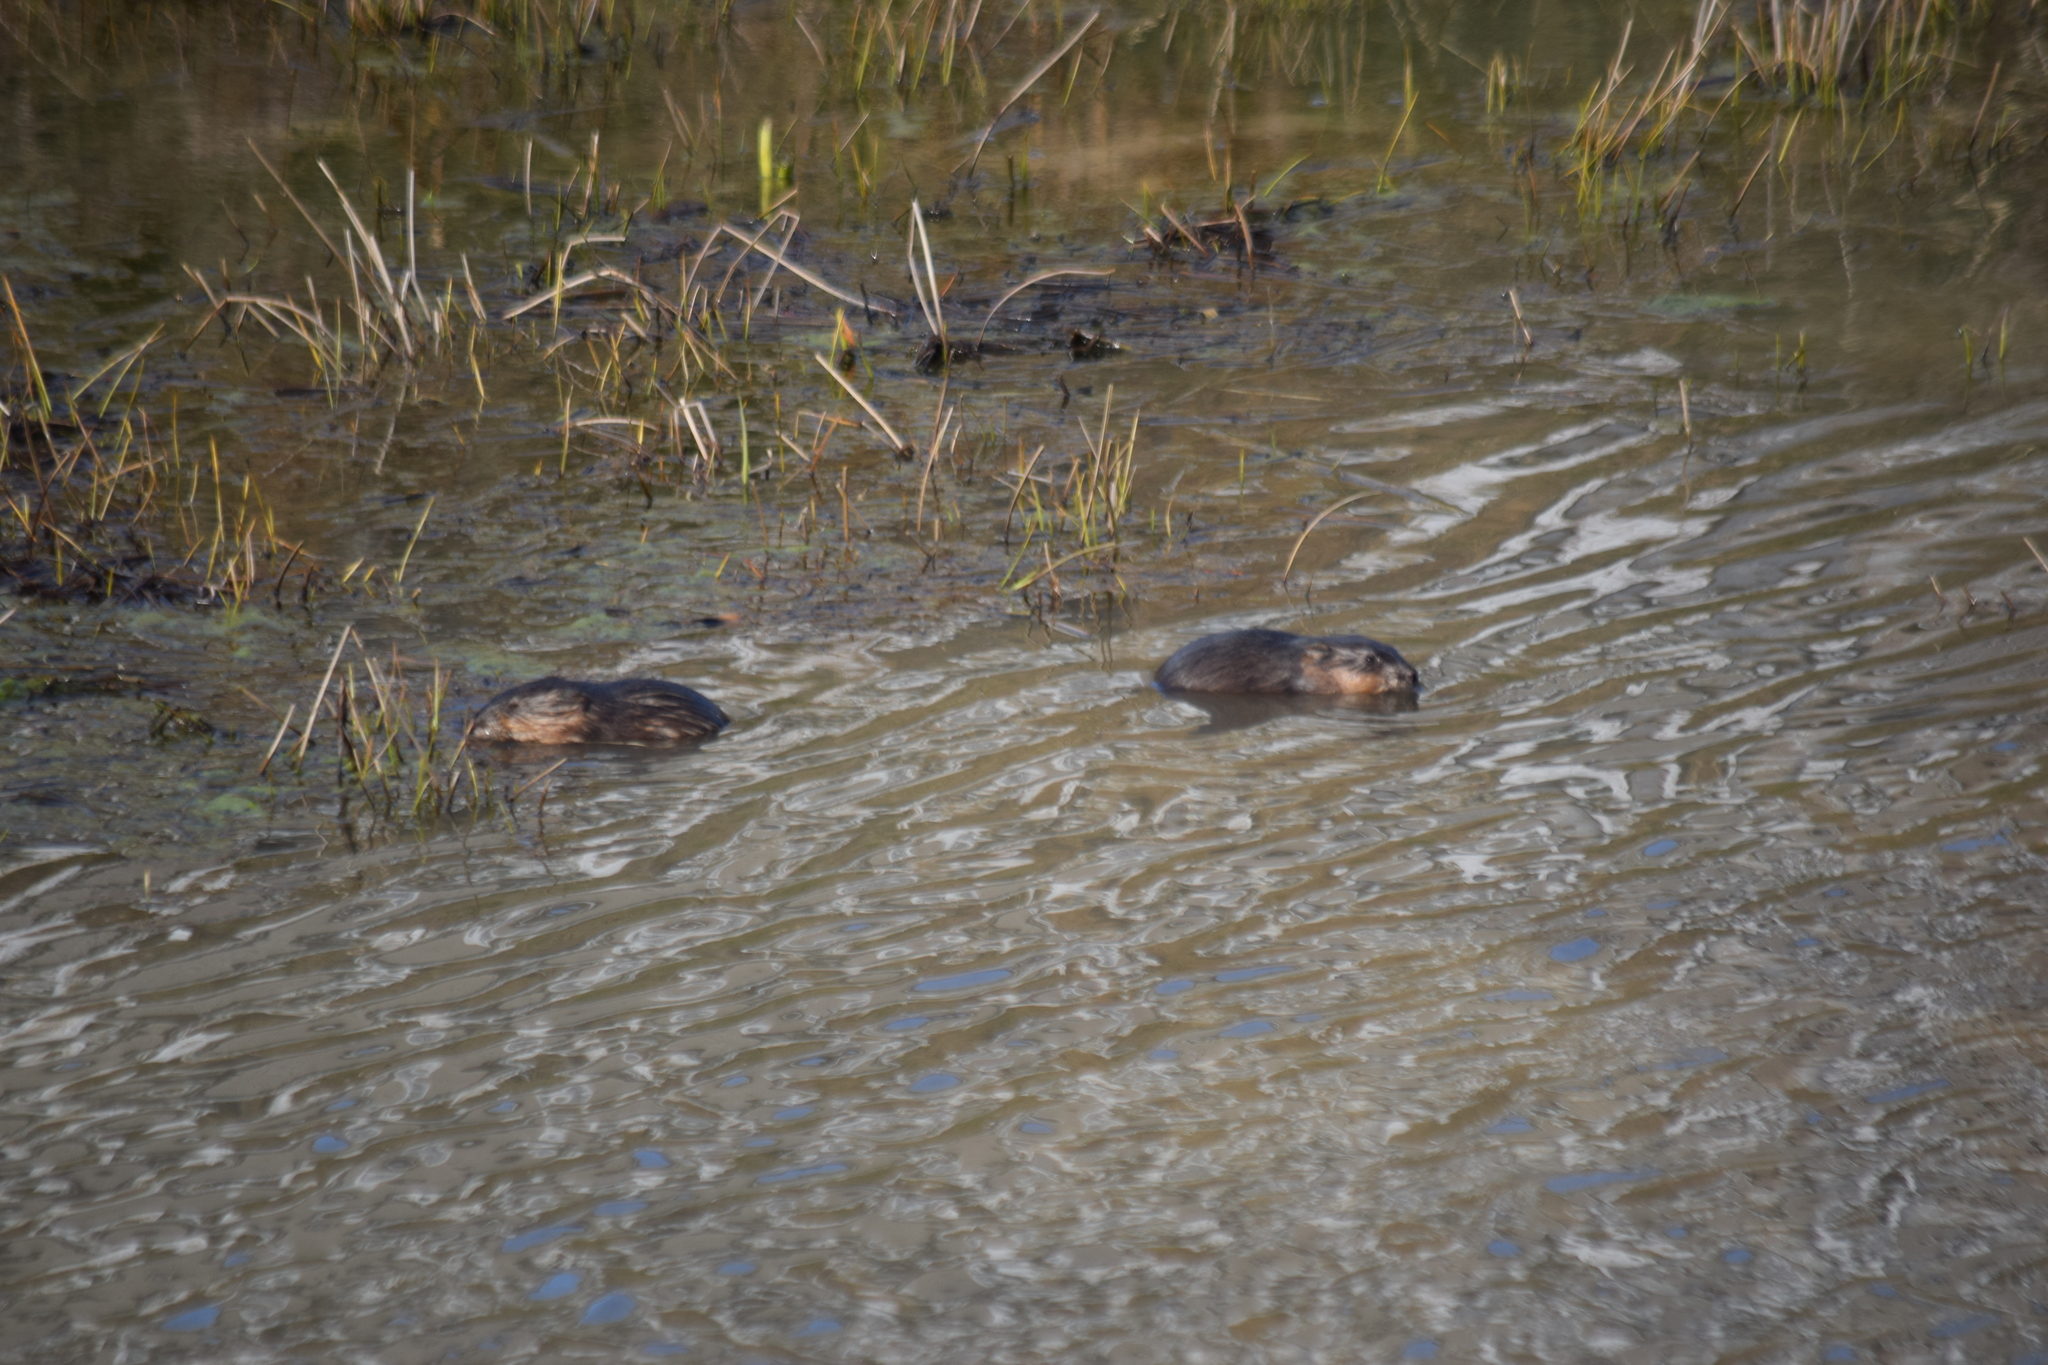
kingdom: Animalia
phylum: Chordata
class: Mammalia
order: Rodentia
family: Cricetidae
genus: Ondatra
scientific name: Ondatra zibethicus
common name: Muskrat
